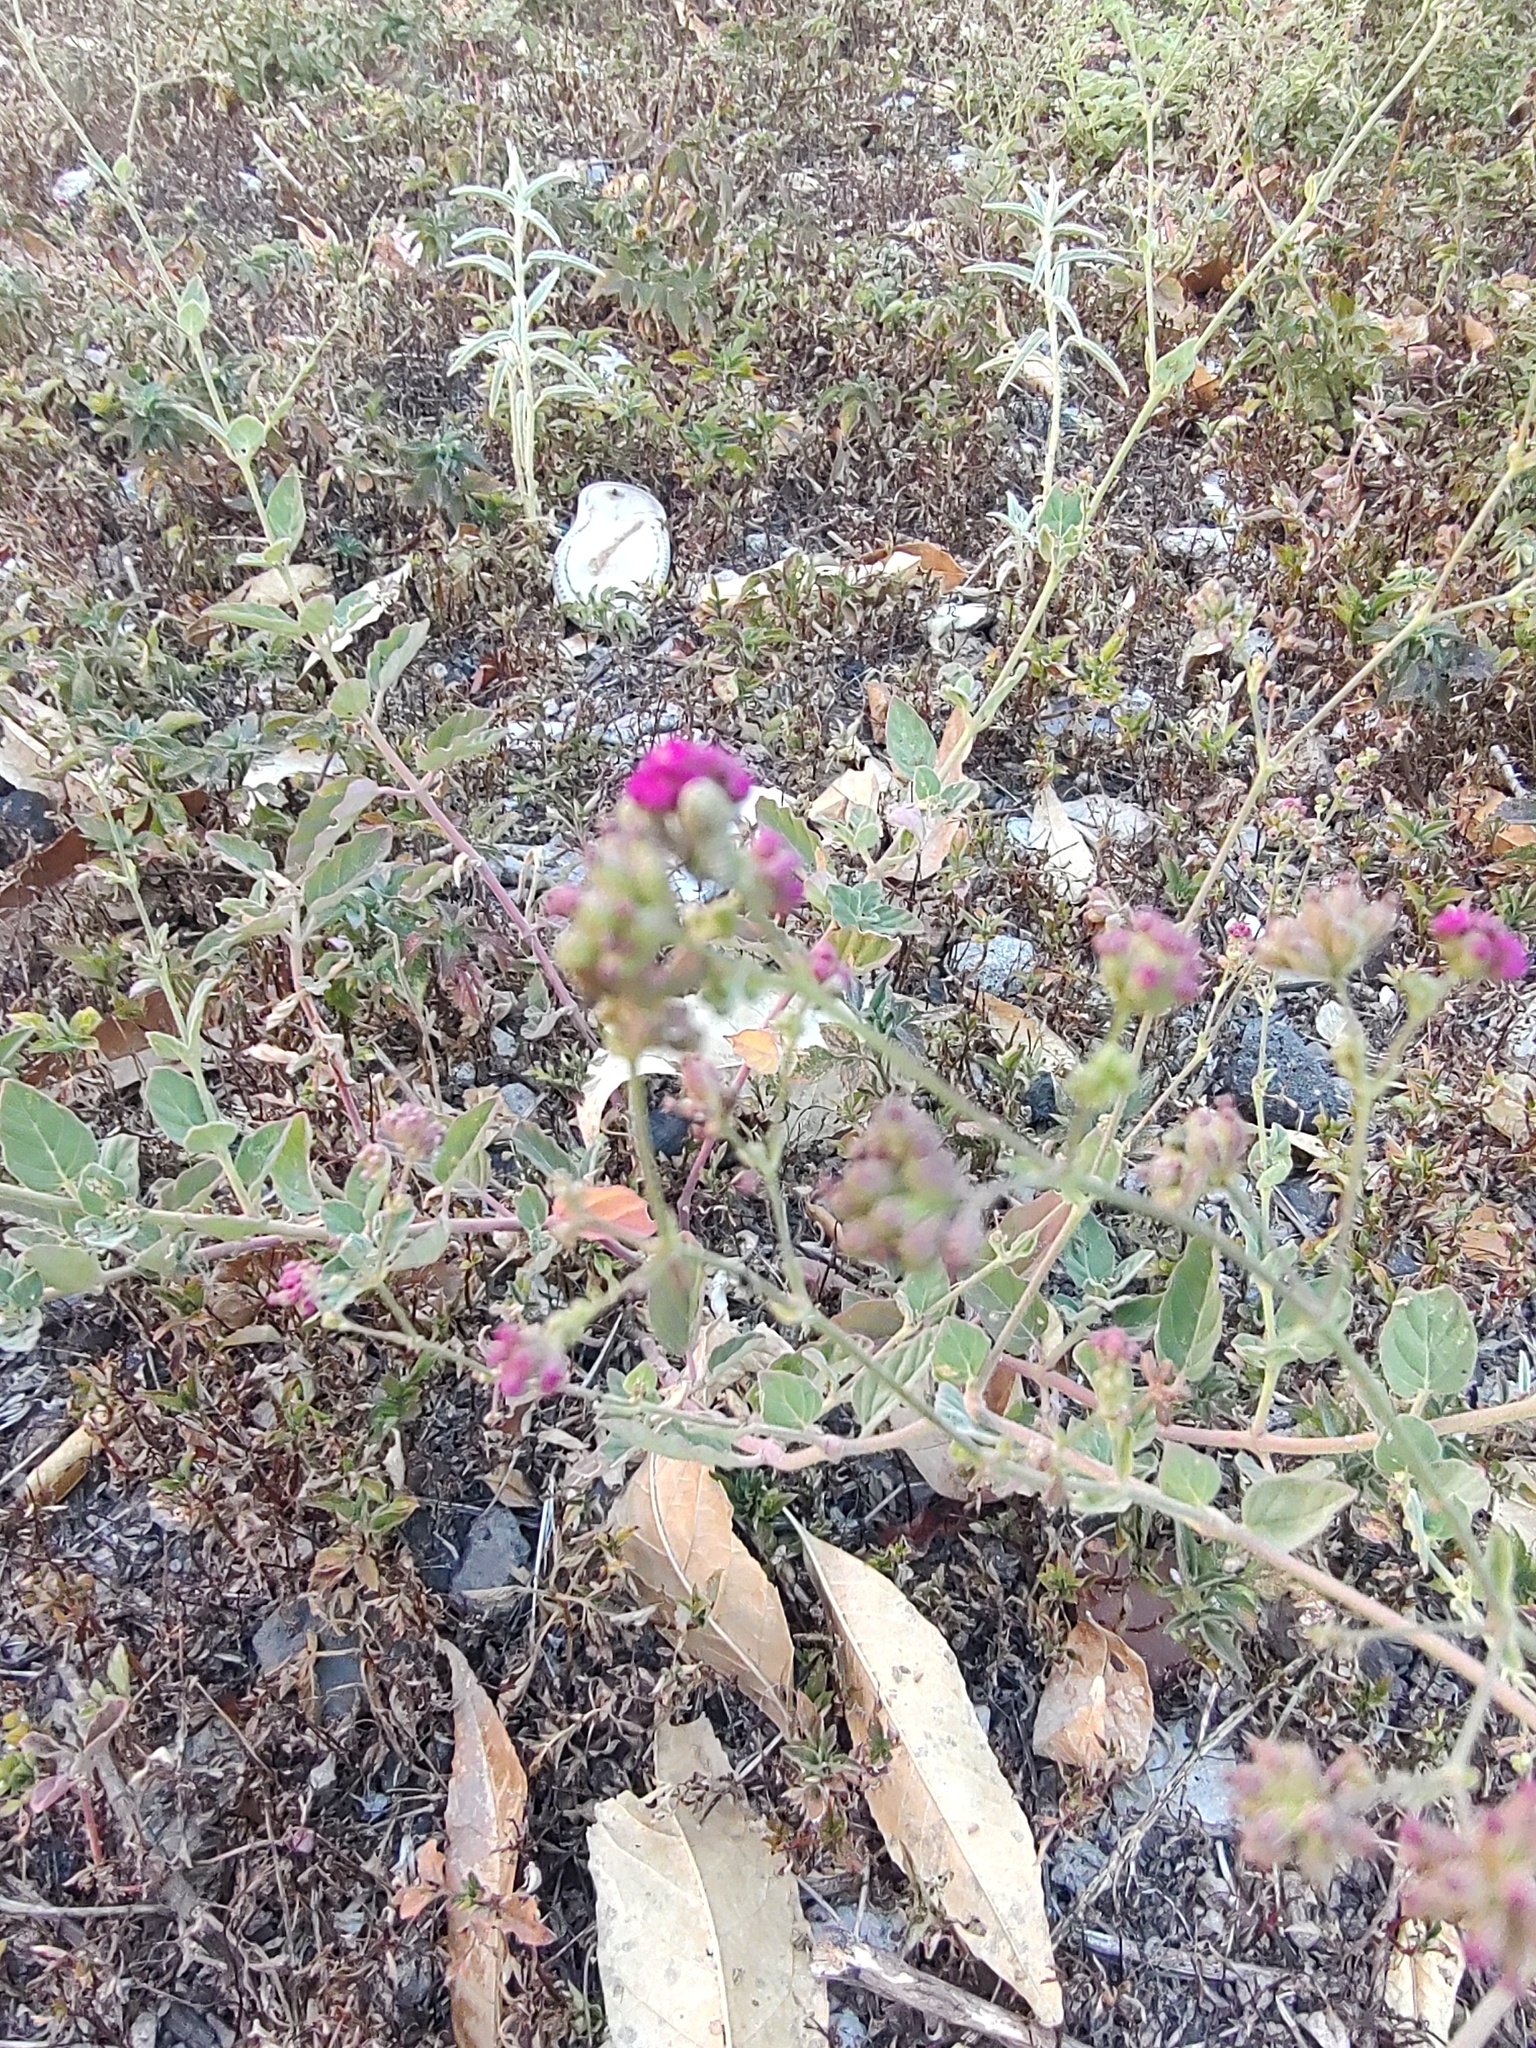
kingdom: Plantae
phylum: Tracheophyta
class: Magnoliopsida
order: Caryophyllales
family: Nyctaginaceae
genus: Boerhavia
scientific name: Boerhavia coccinea
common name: Scarlet spiderling
